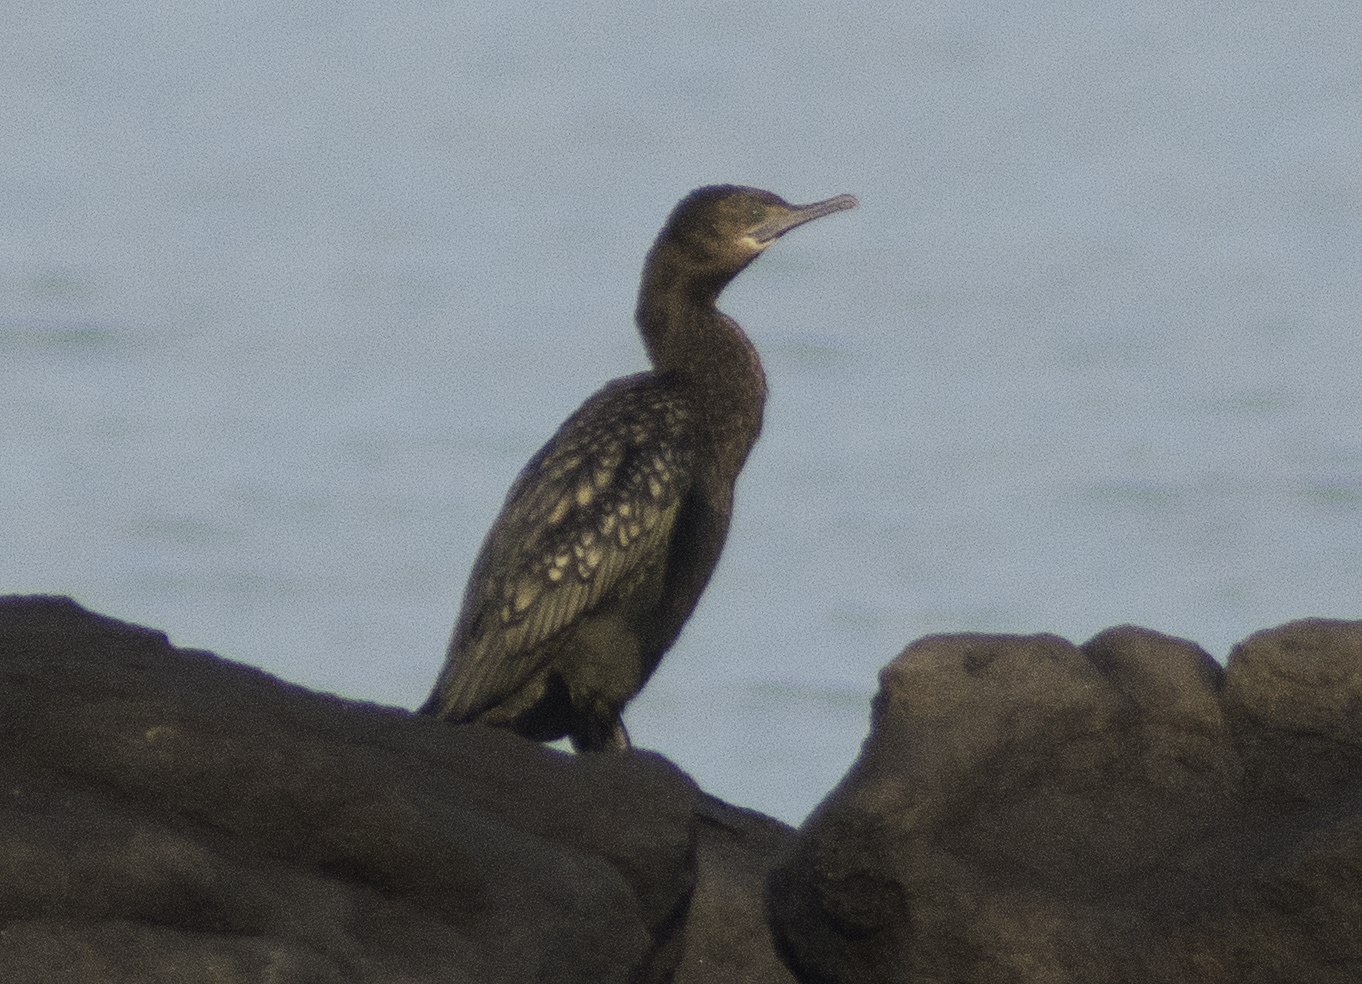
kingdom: Animalia
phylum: Chordata
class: Aves
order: Suliformes
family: Phalacrocoracidae
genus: Phalacrocorax
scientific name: Phalacrocorax sulcirostris
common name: Little black cormorant
